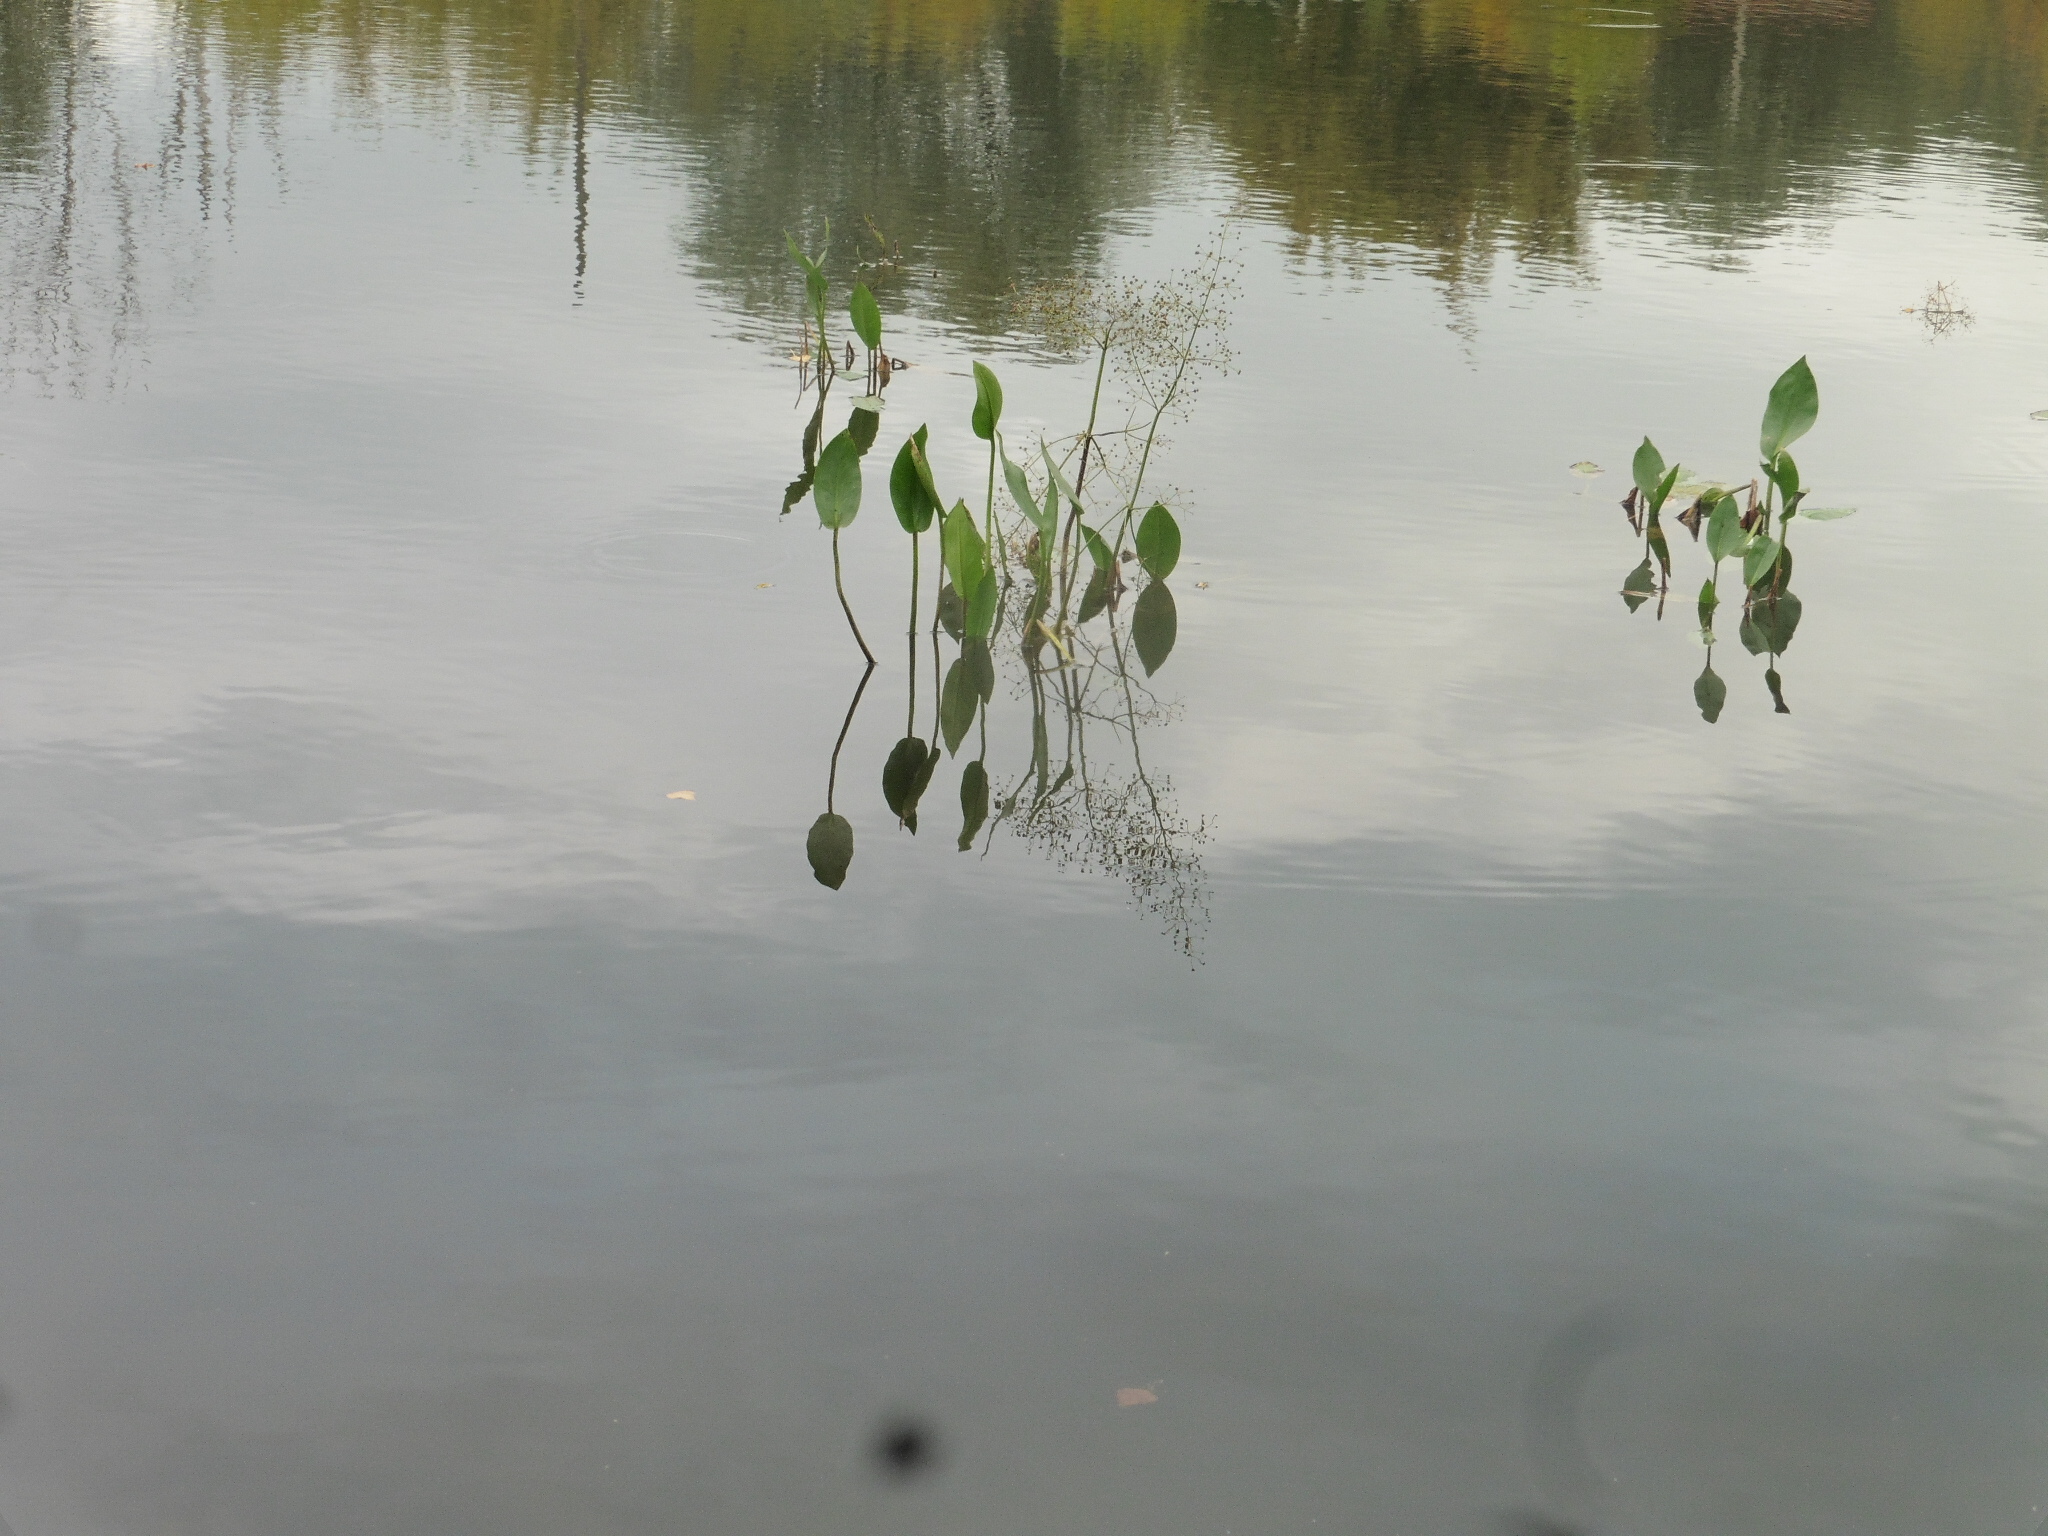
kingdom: Plantae
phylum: Tracheophyta
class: Liliopsida
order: Alismatales
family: Alismataceae
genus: Alisma
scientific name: Alisma plantago-aquatica
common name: Water-plantain
